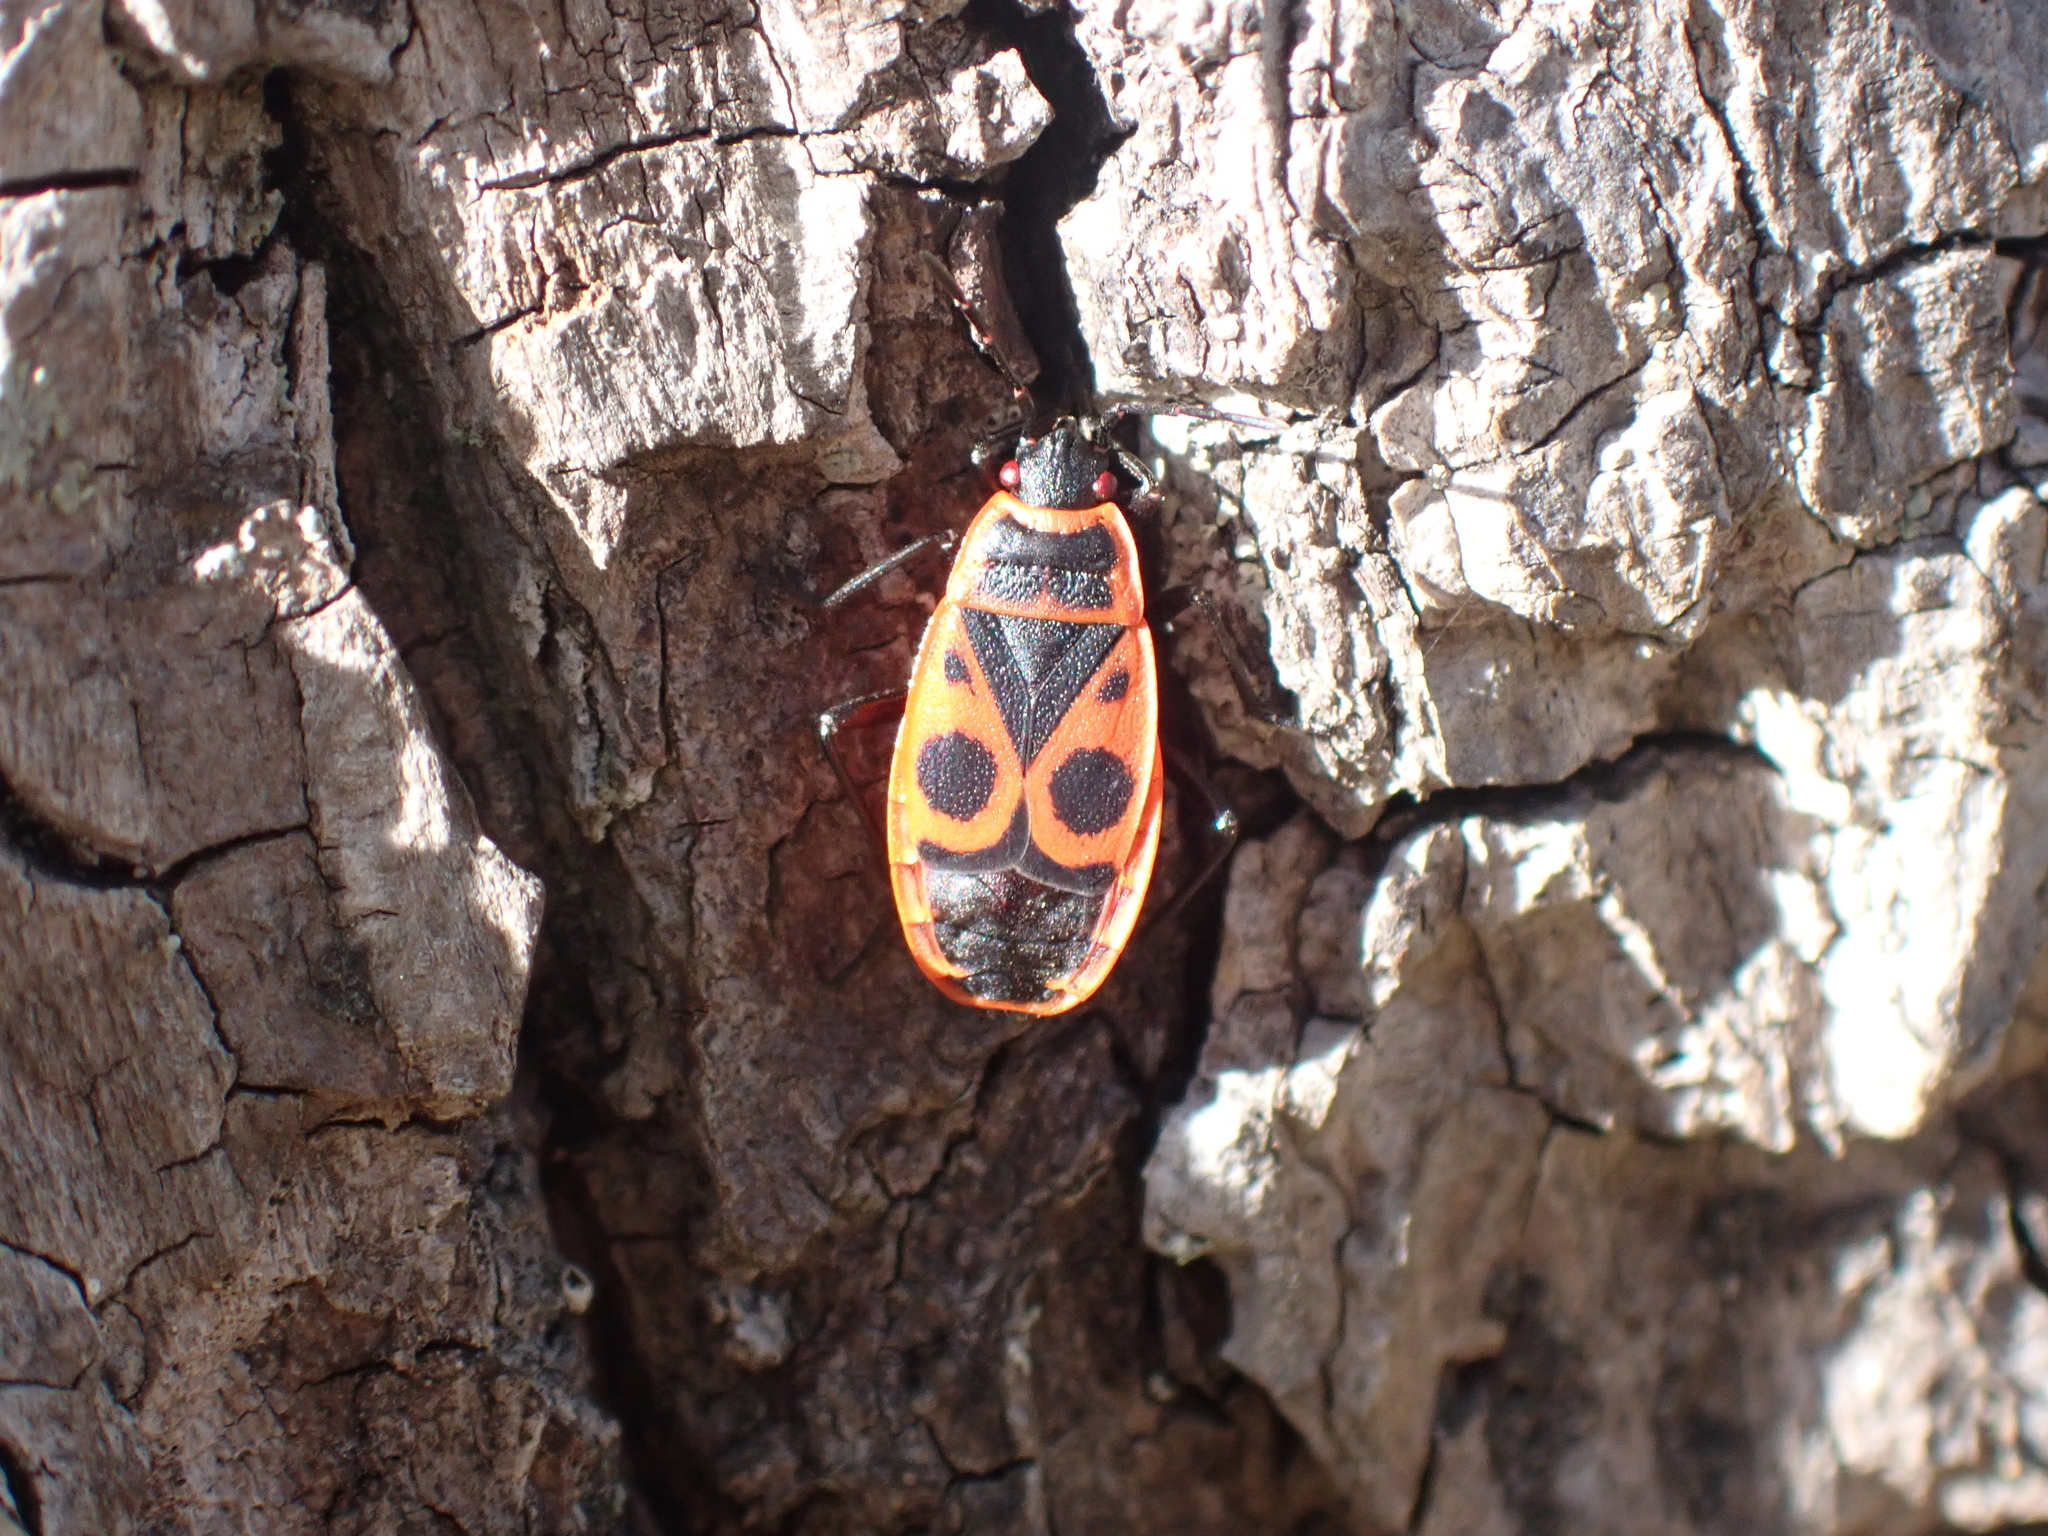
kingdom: Animalia
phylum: Arthropoda
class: Insecta
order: Hemiptera
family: Pyrrhocoridae
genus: Pyrrhocoris
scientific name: Pyrrhocoris apterus
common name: Firebug
